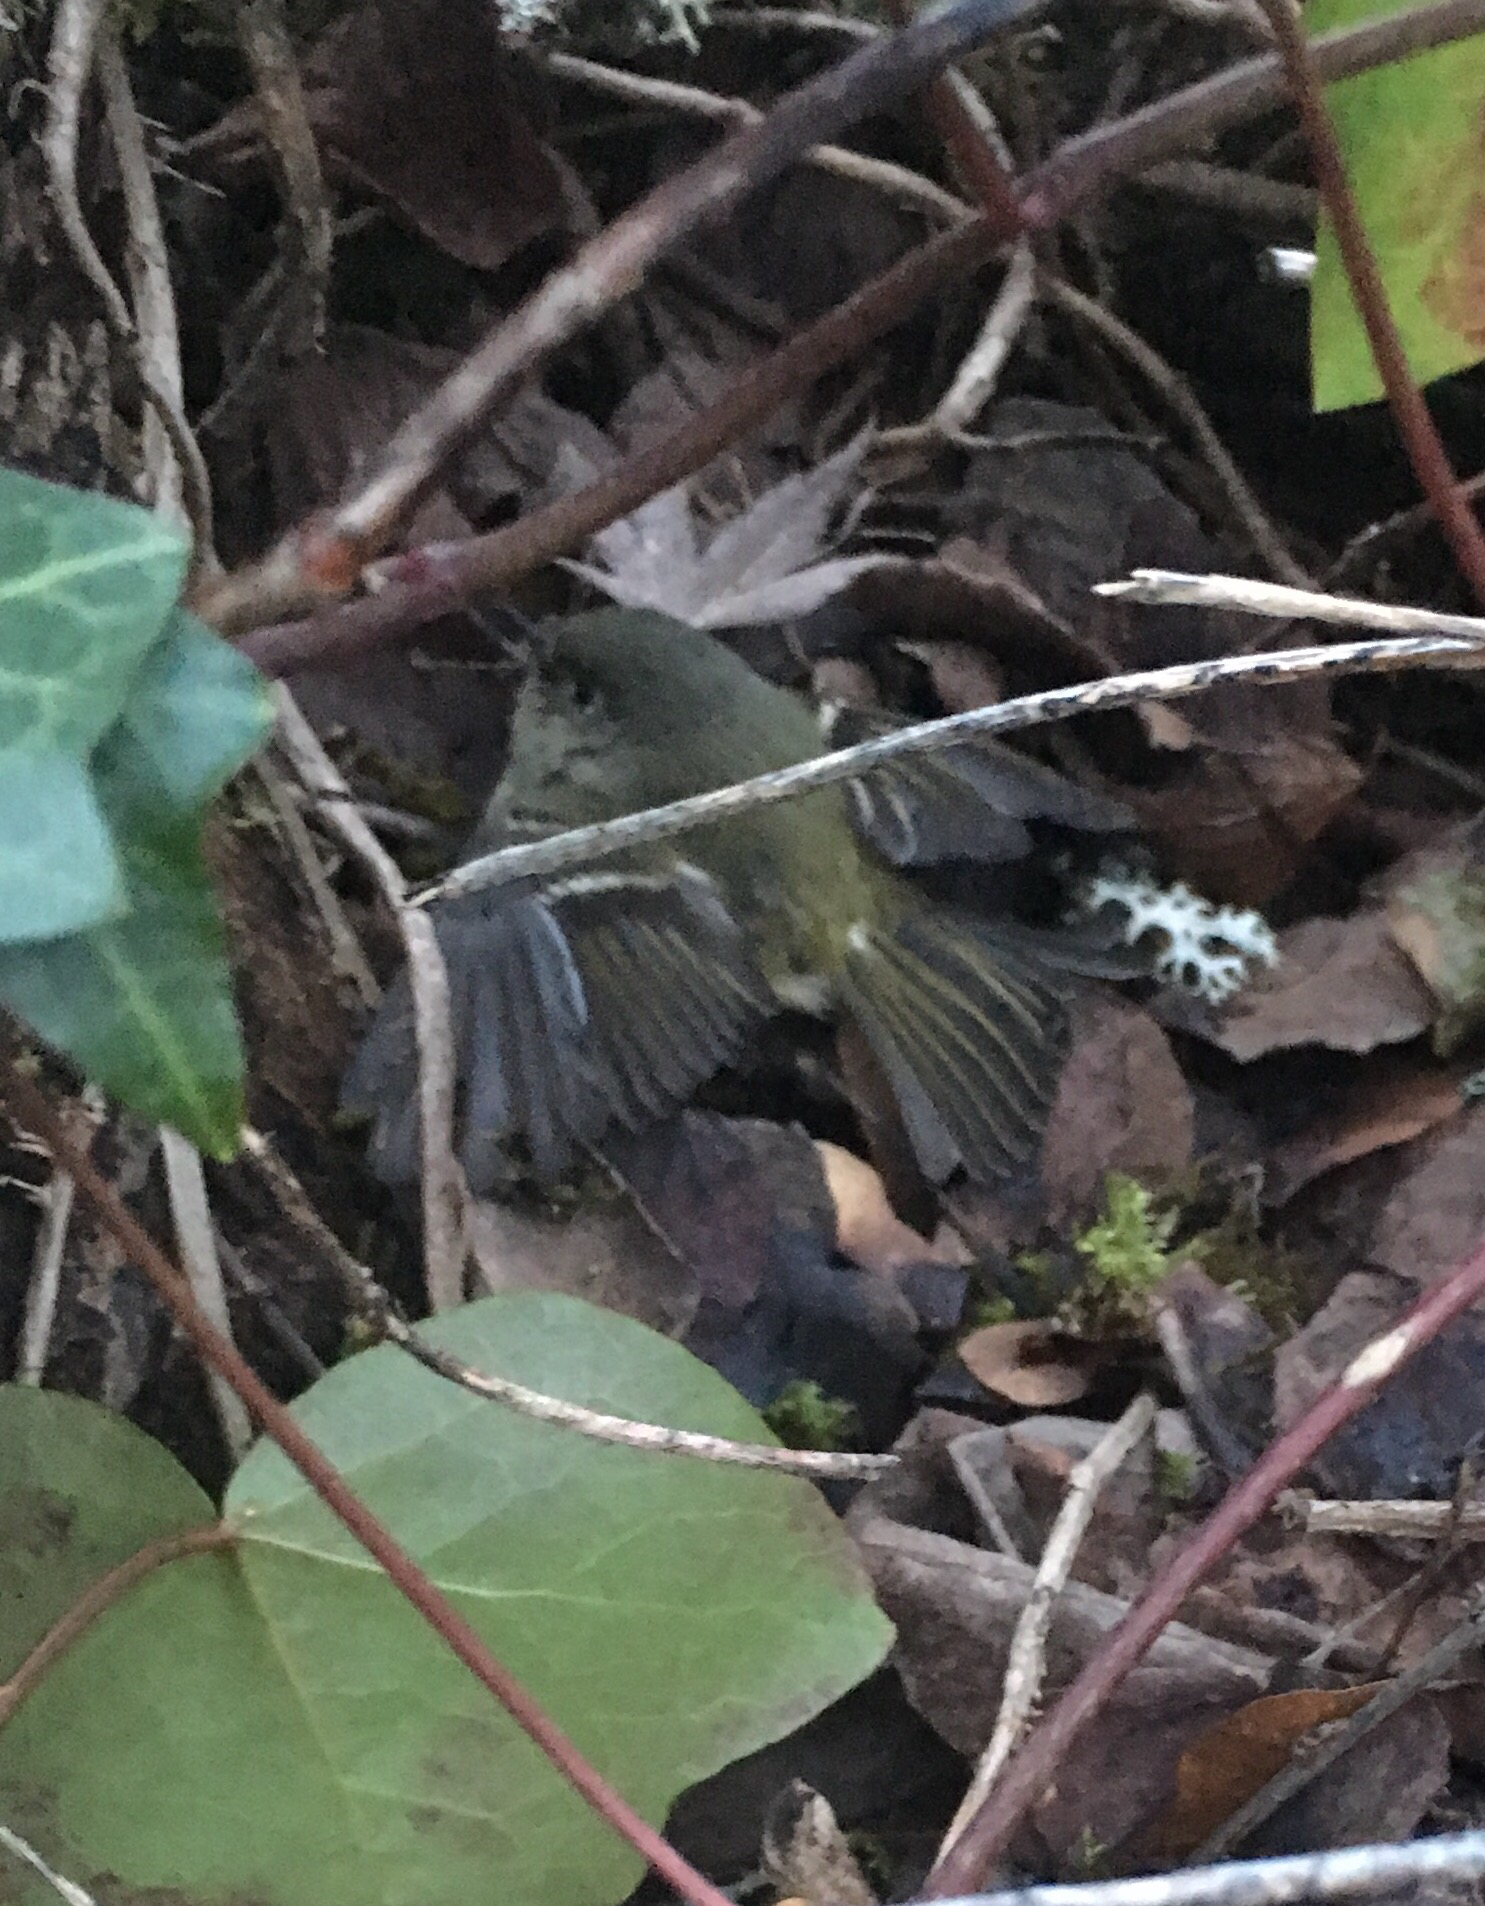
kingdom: Animalia
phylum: Chordata
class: Aves
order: Passeriformes
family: Regulidae
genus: Regulus
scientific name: Regulus calendula
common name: Ruby-crowned kinglet
